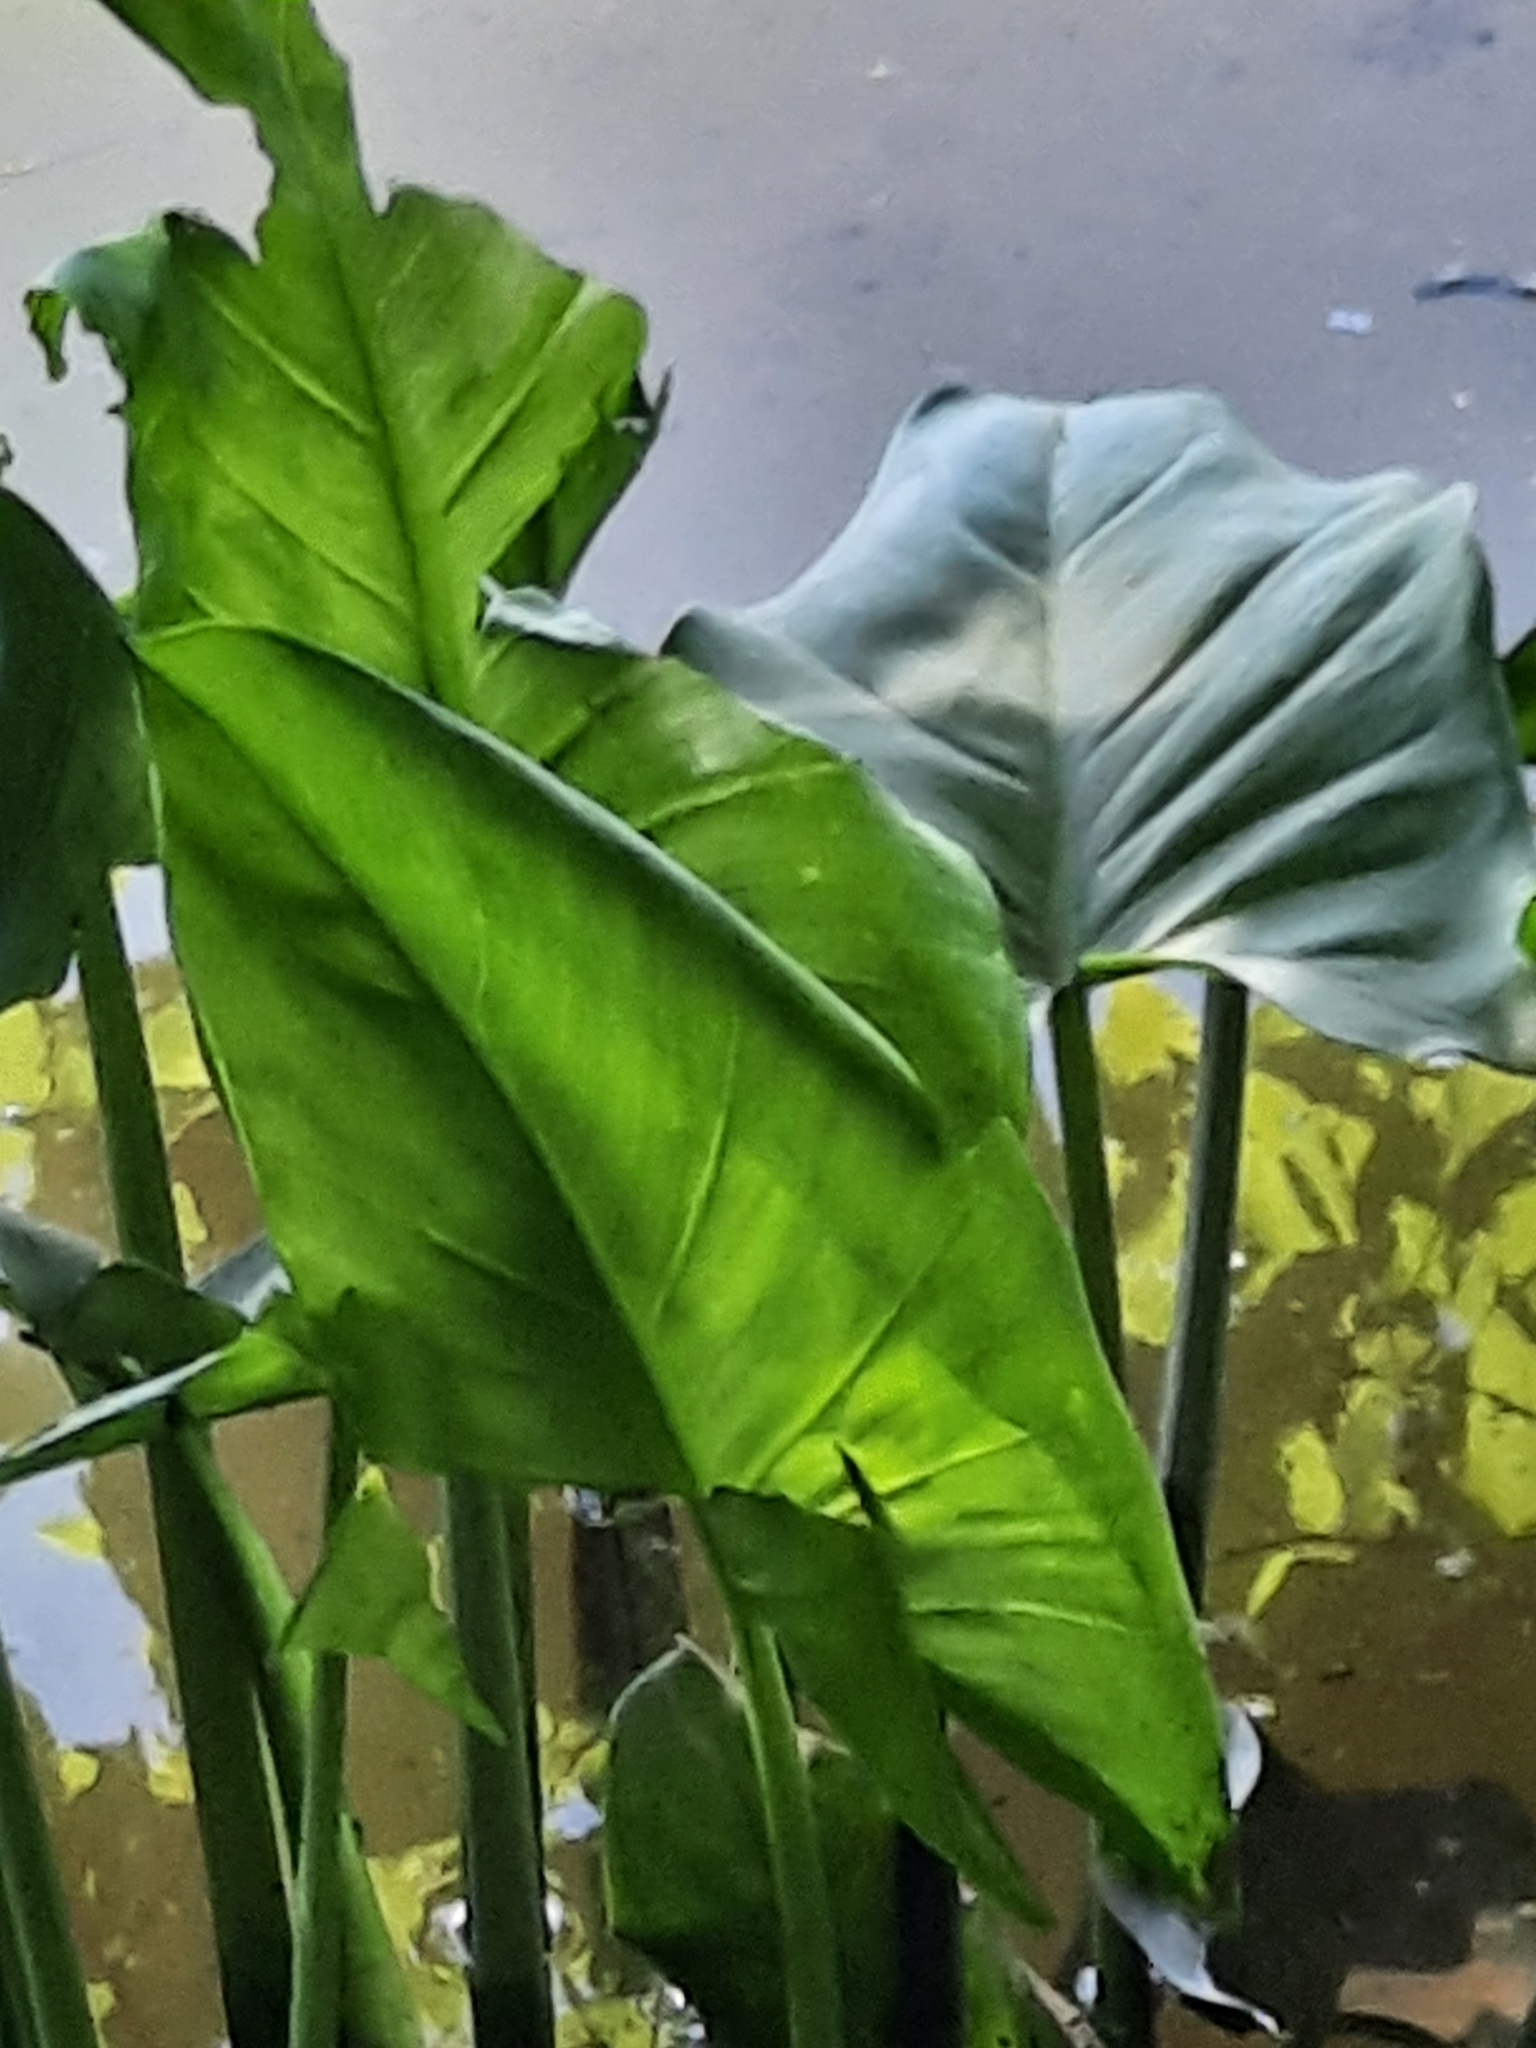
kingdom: Plantae
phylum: Tracheophyta
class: Liliopsida
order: Alismatales
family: Araceae
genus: Peltandra
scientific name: Peltandra virginica
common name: Arrow arum
